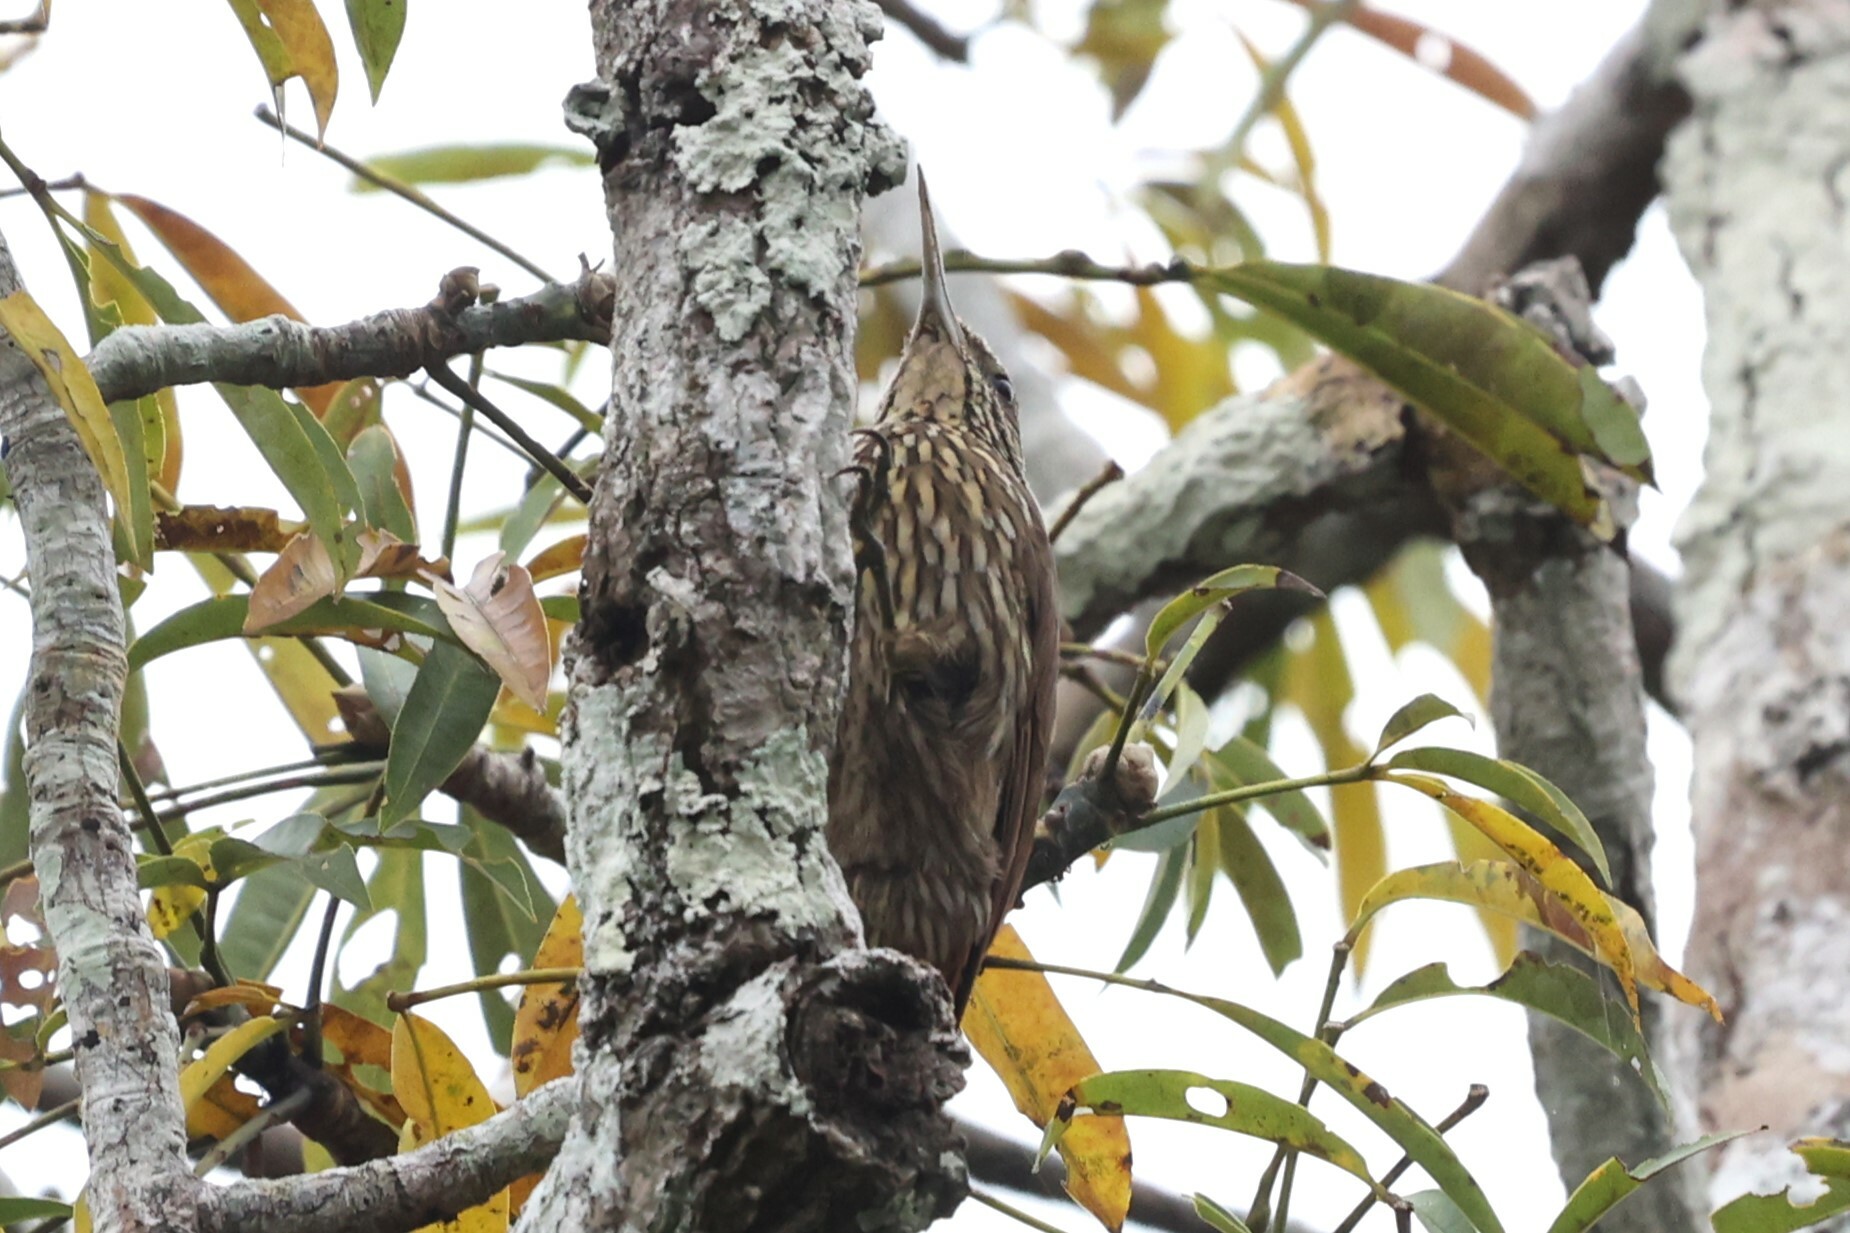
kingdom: Animalia
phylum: Chordata
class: Aves
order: Passeriformes
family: Furnariidae
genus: Lepidocolaptes
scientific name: Lepidocolaptes duidae
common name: Duida woodcreeper
